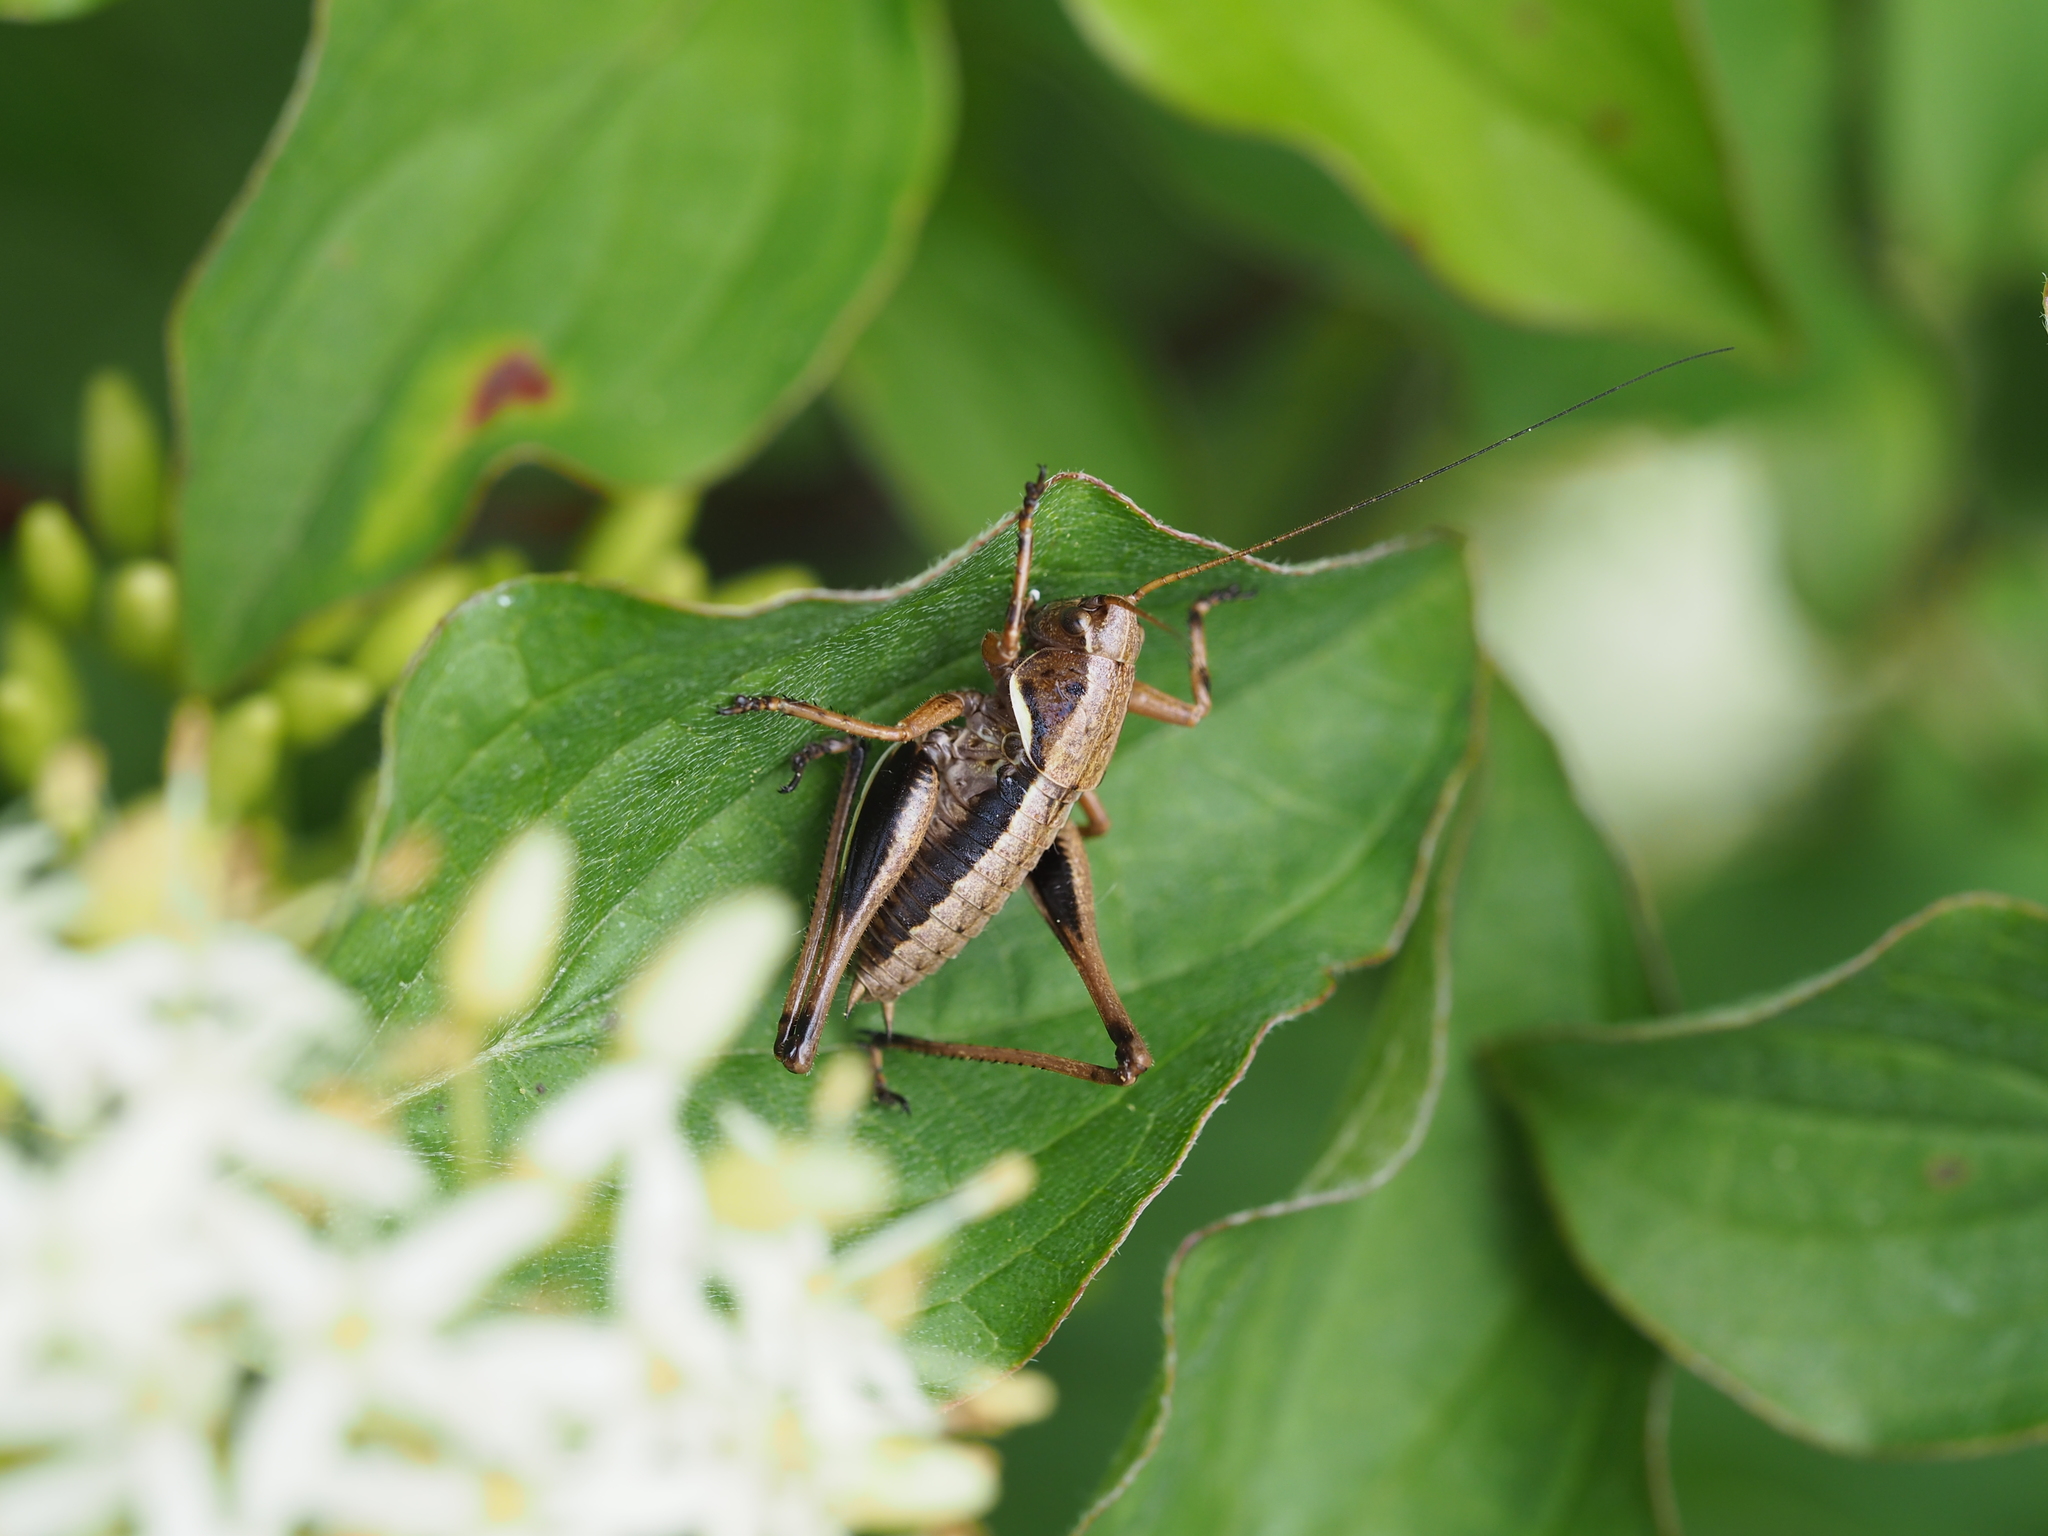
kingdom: Animalia
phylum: Arthropoda
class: Insecta
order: Orthoptera
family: Tettigoniidae
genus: Pholidoptera
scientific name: Pholidoptera aptera
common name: Alpine dark bush-cricket
